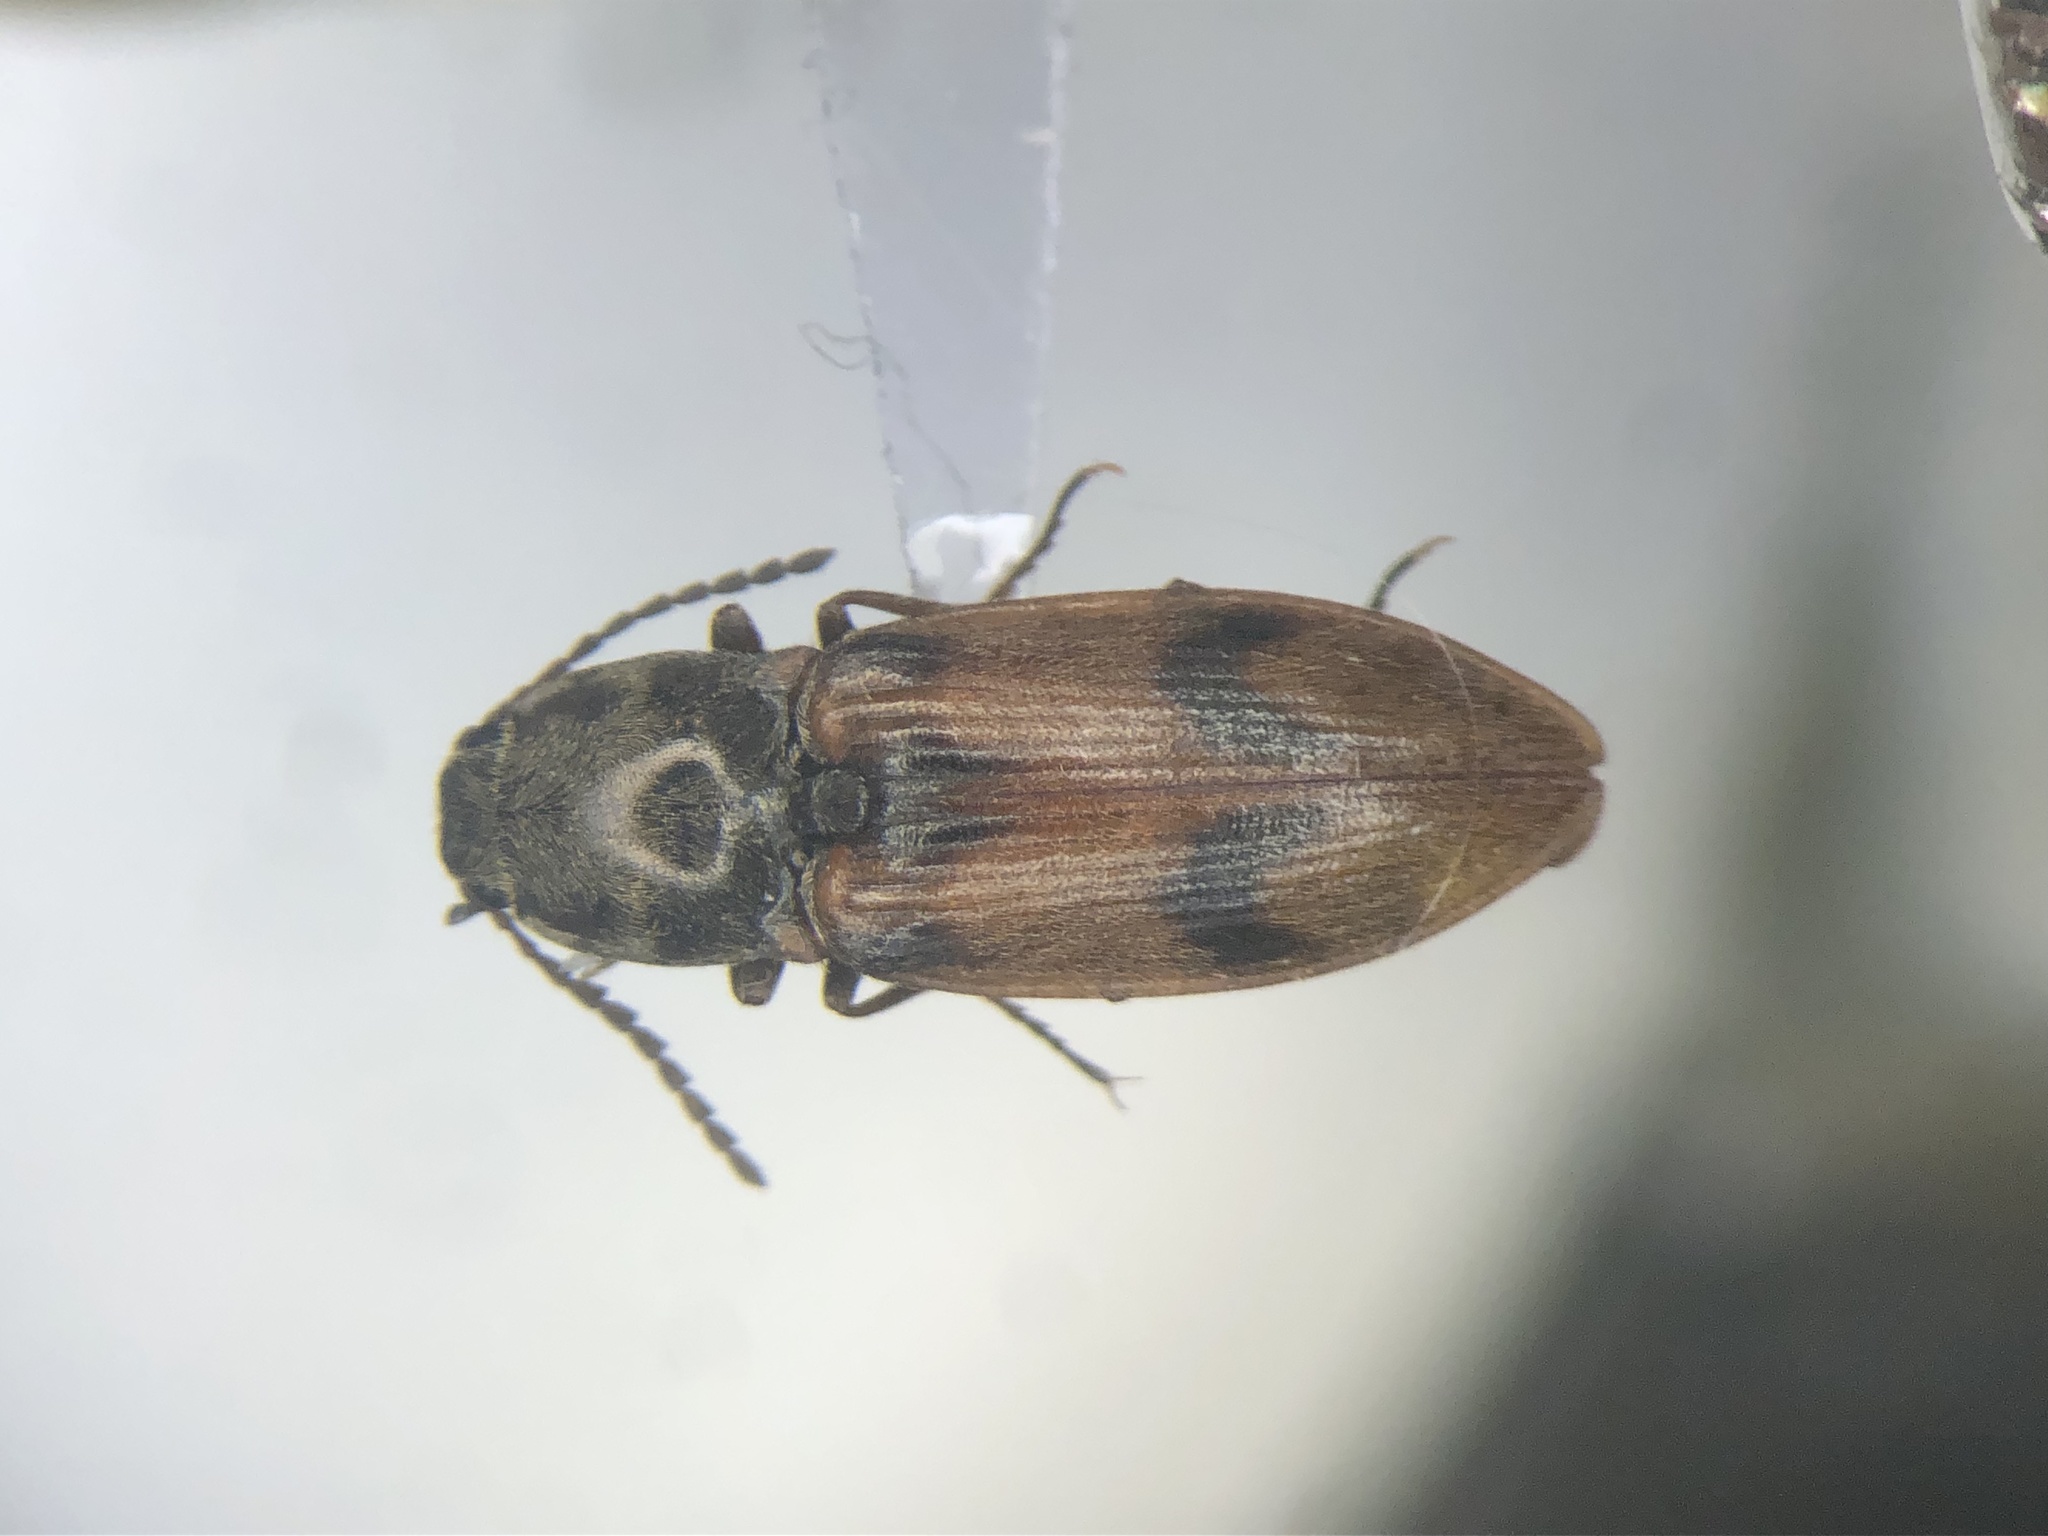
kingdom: Animalia
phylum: Arthropoda
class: Insecta
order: Coleoptera
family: Elateridae
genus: Stropenron
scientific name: Stropenron propola
